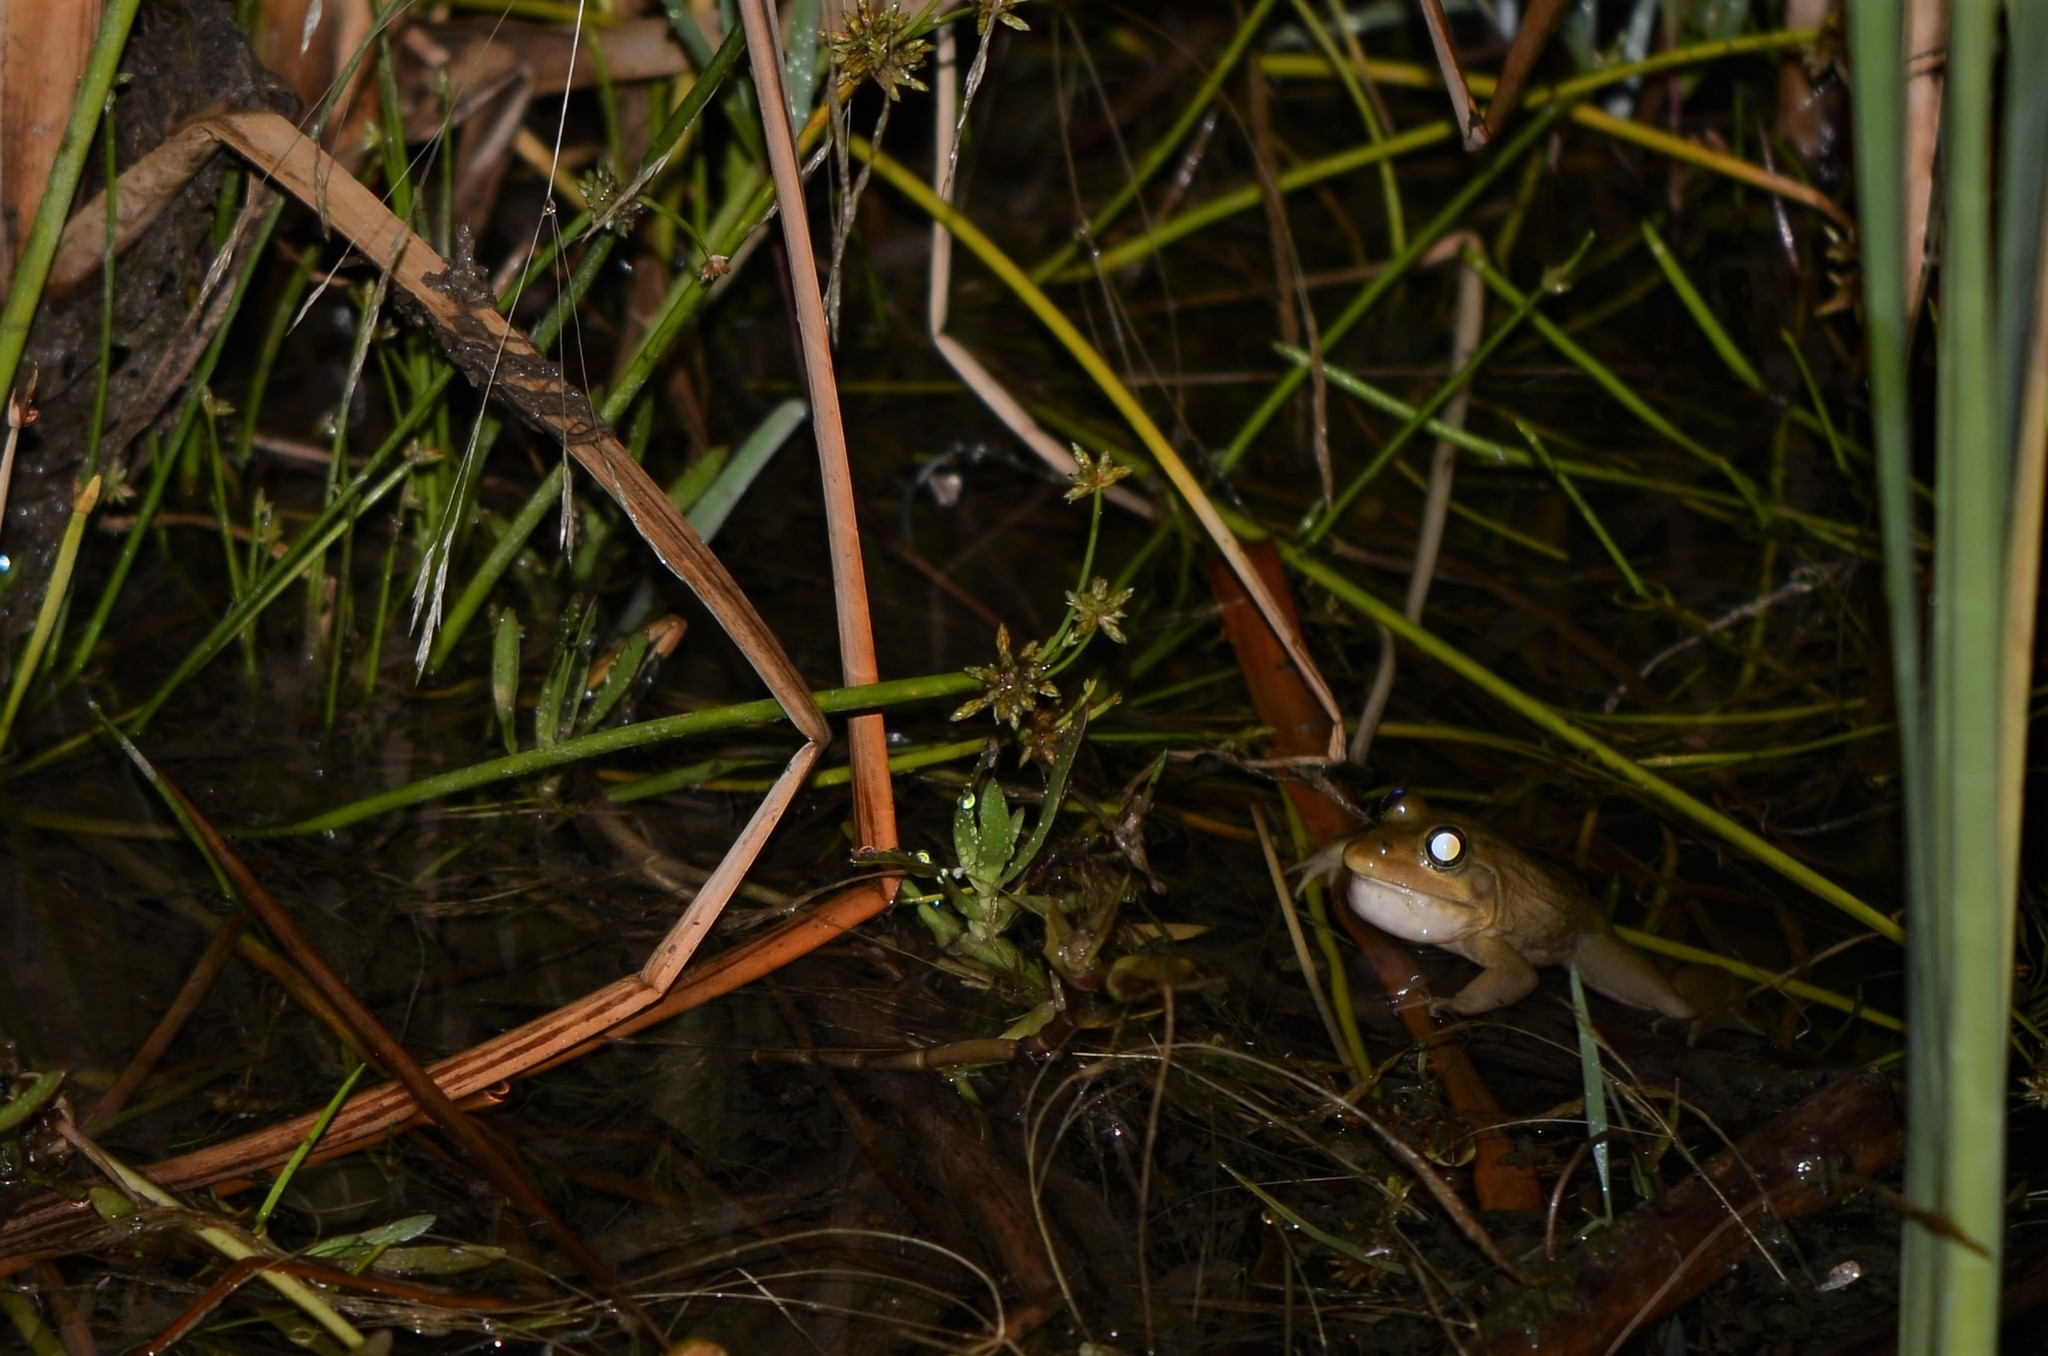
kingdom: Animalia
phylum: Chordata
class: Amphibia
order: Anura
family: Pyxicephalidae
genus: Amietia
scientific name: Amietia fuscigula
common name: Cape rana
